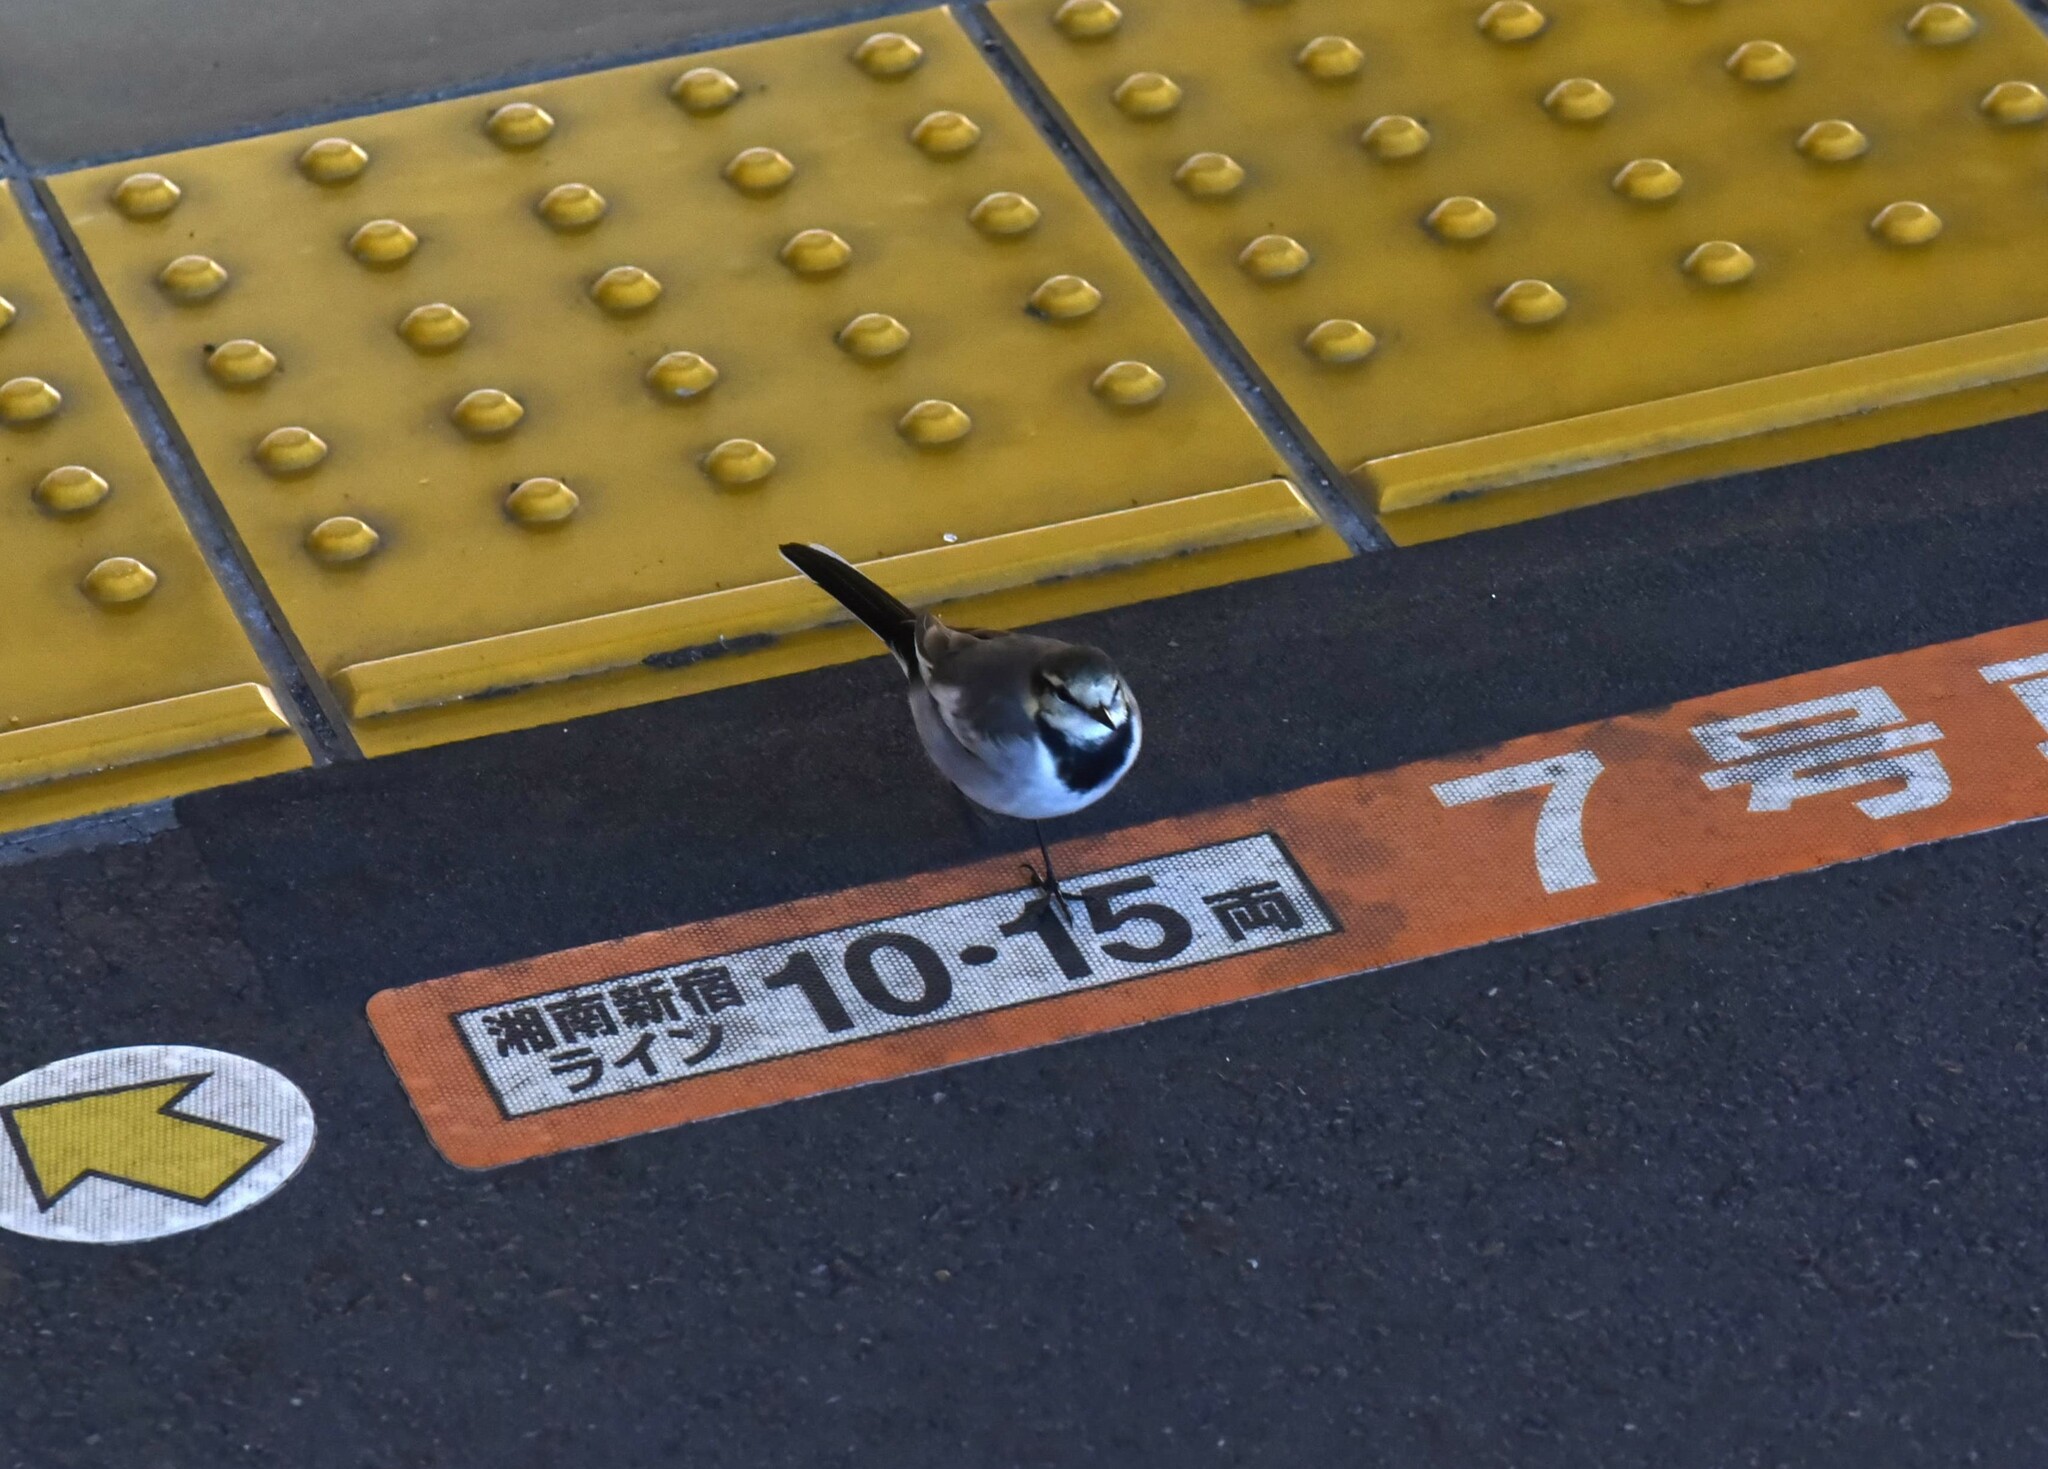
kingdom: Animalia
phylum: Chordata
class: Aves
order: Passeriformes
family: Motacillidae
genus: Motacilla
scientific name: Motacilla alba
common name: White wagtail
